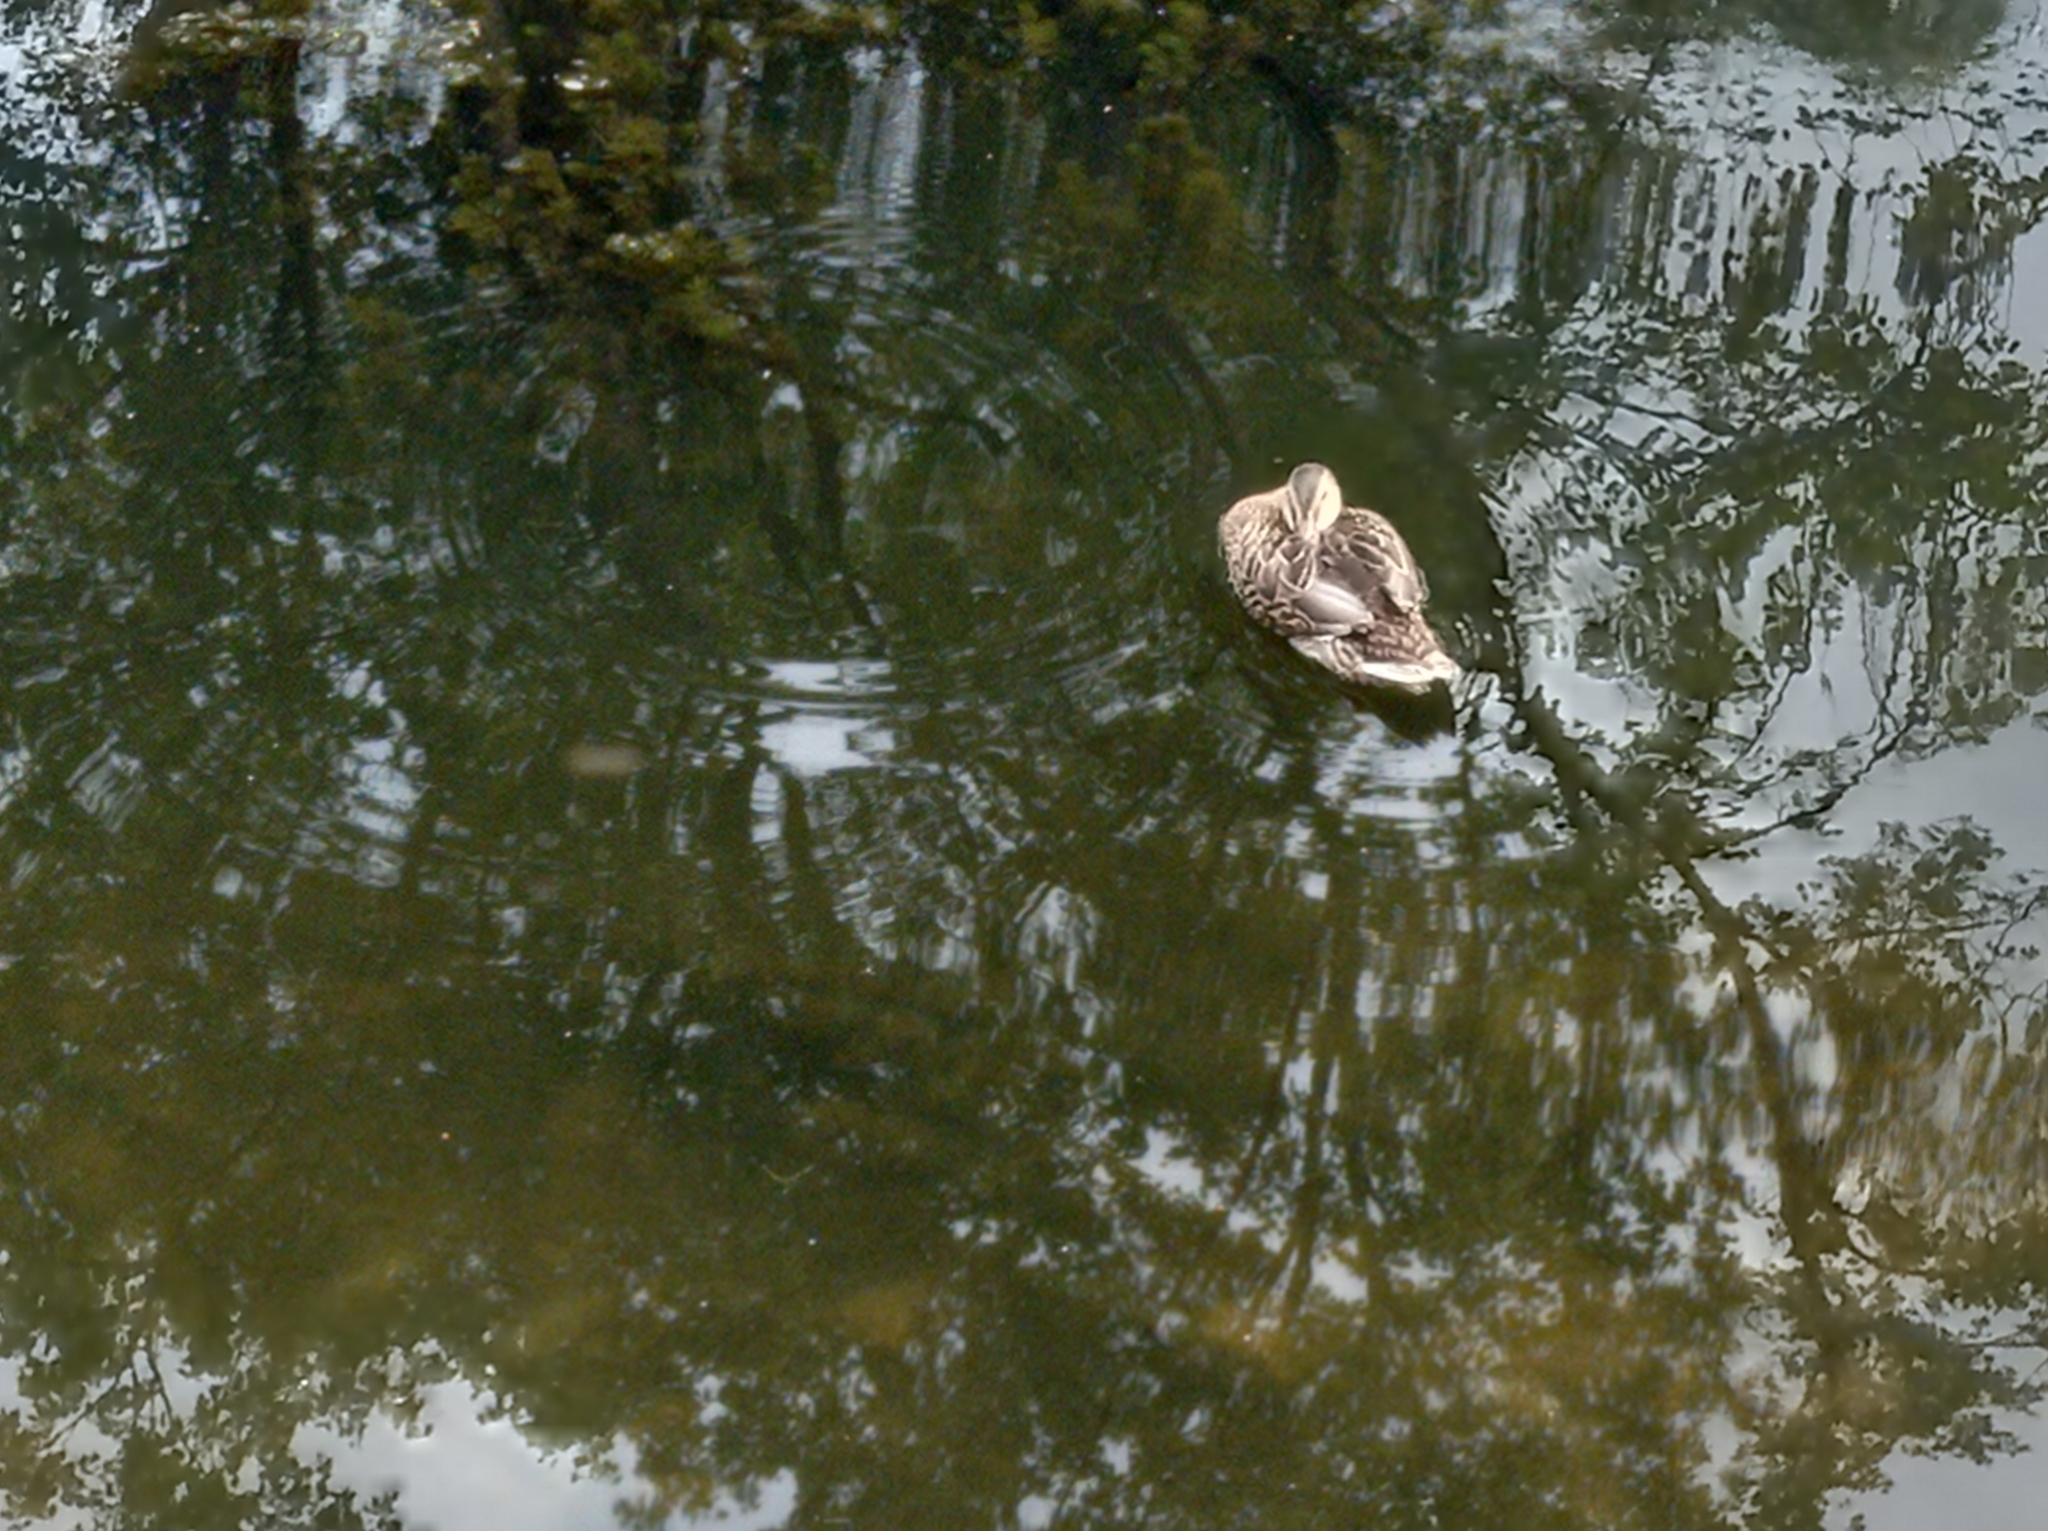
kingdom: Animalia
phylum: Chordata
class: Aves
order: Anseriformes
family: Anatidae
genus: Anas
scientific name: Anas platyrhynchos
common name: Mallard
